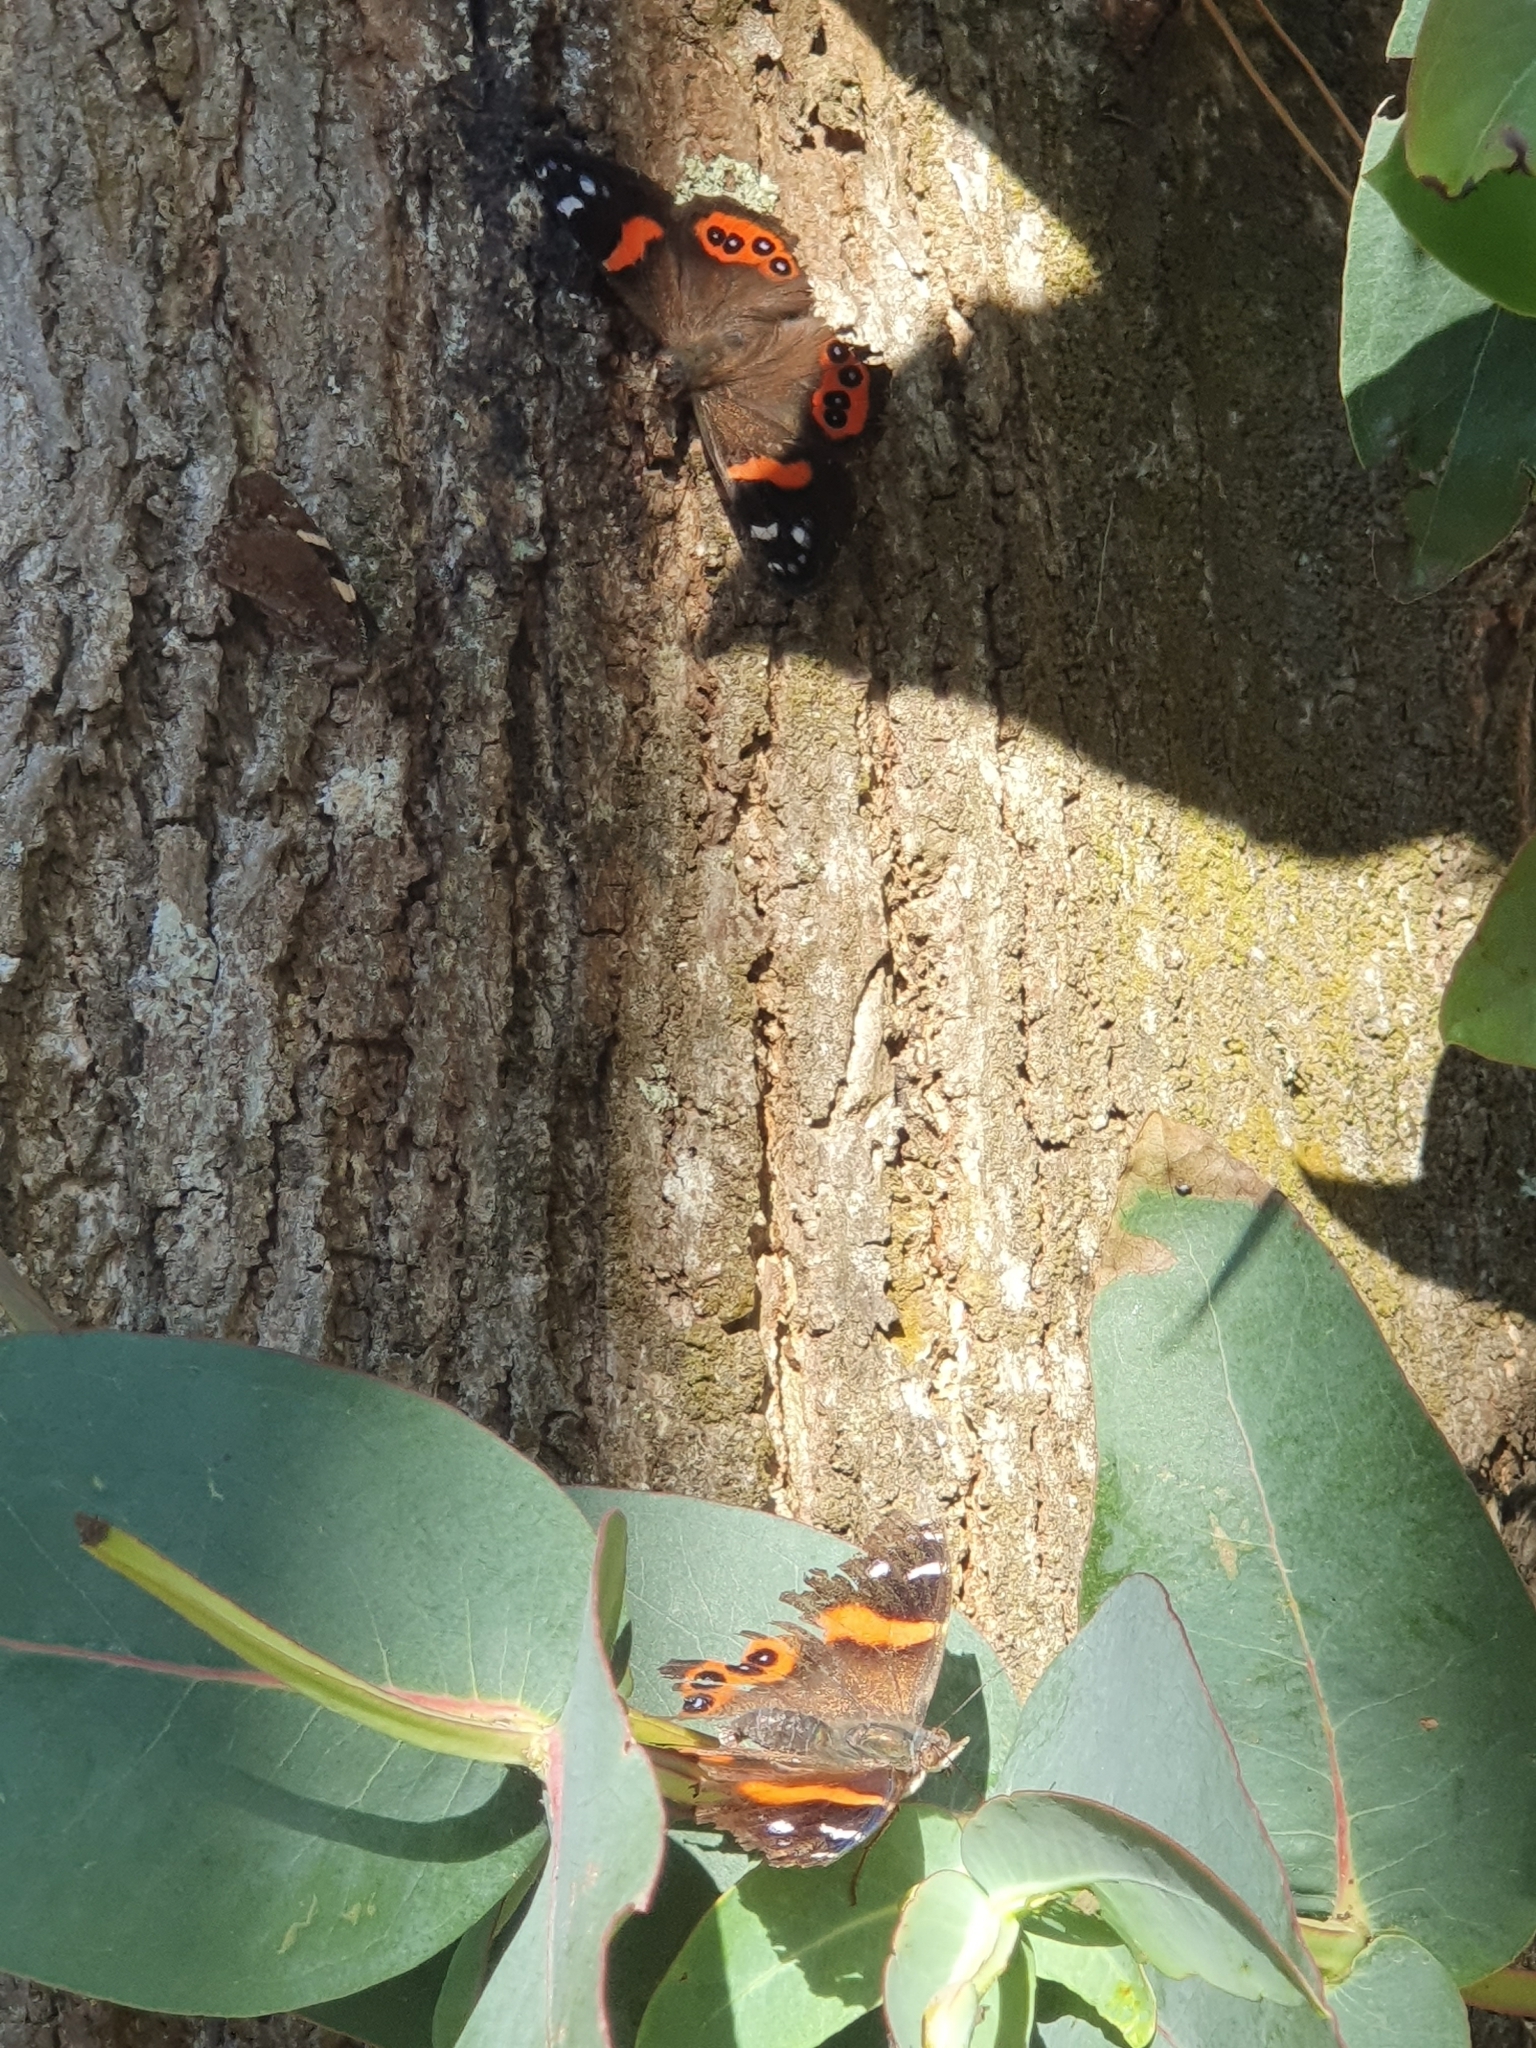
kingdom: Animalia
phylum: Arthropoda
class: Insecta
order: Lepidoptera
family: Nymphalidae
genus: Vanessa
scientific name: Vanessa gonerilla
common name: New zealand red admiral
